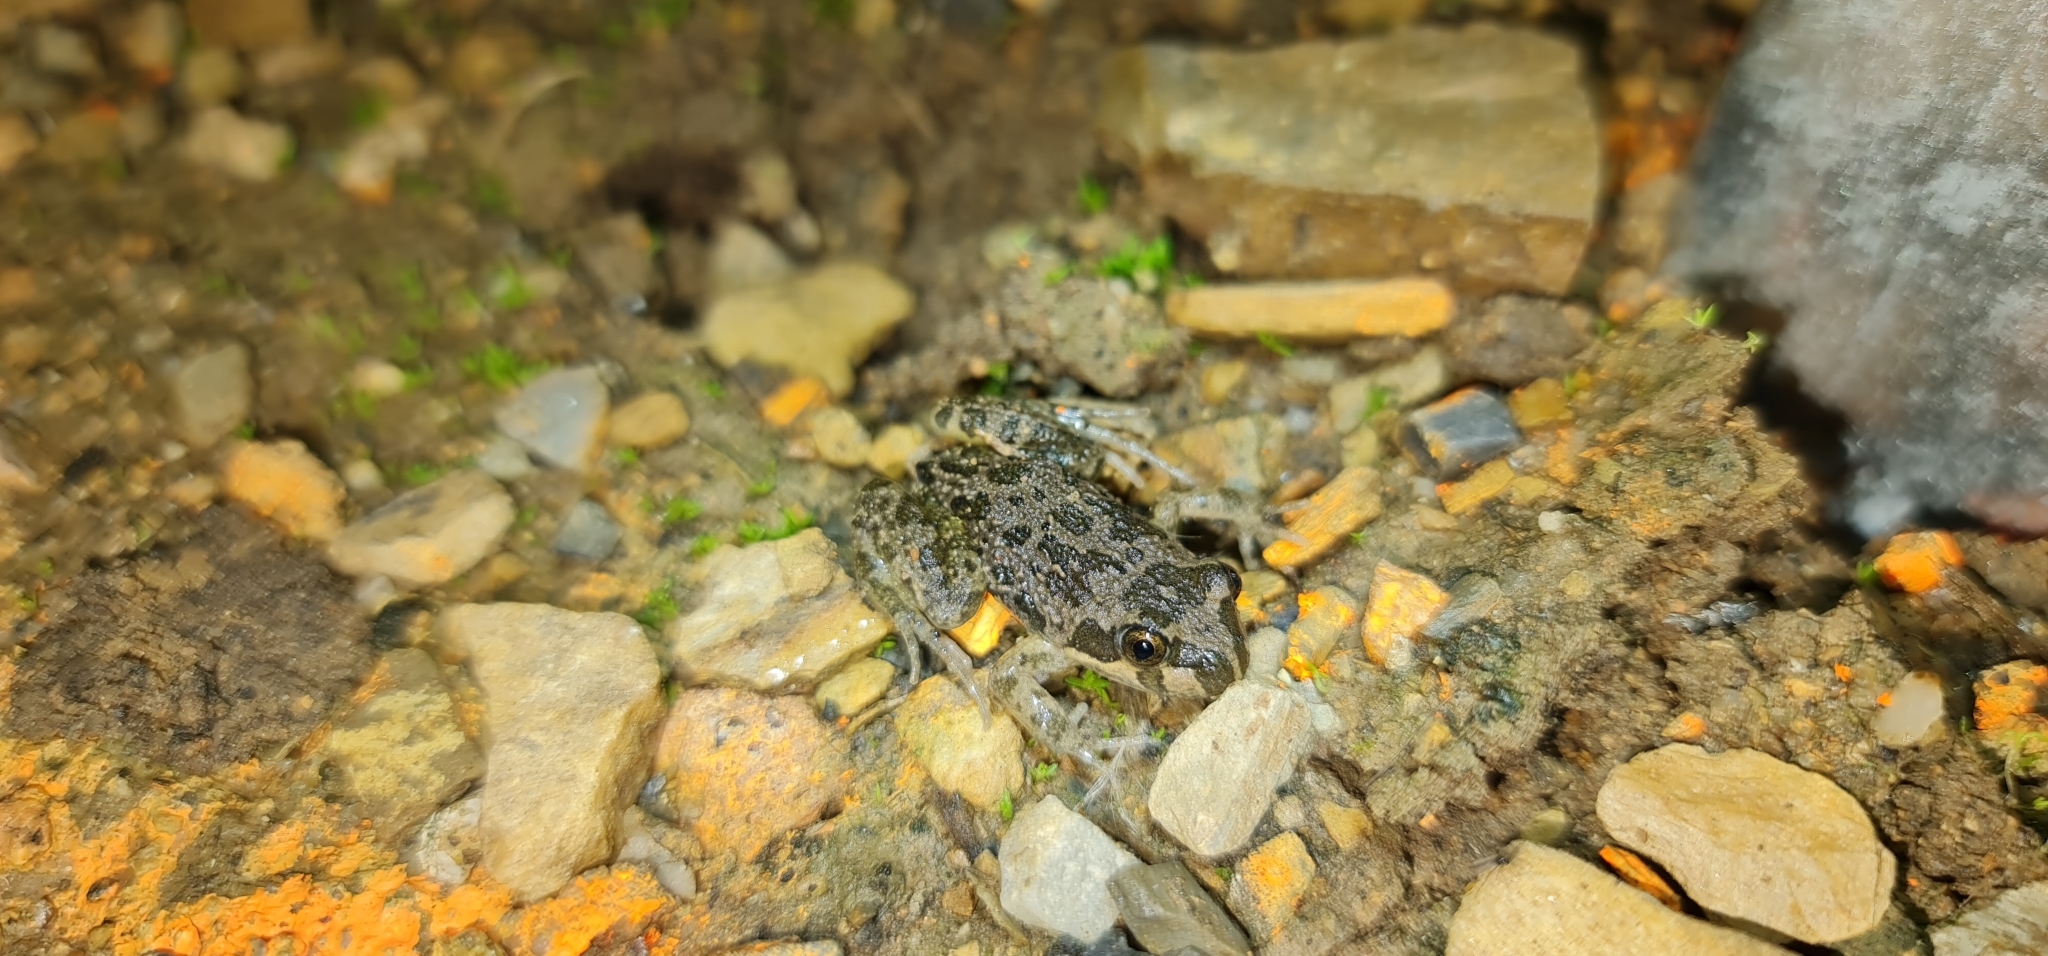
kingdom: Animalia
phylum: Chordata
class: Amphibia
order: Anura
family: Limnodynastidae
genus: Limnodynastes
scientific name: Limnodynastes tasmaniensis
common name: Spotted marsh frog
